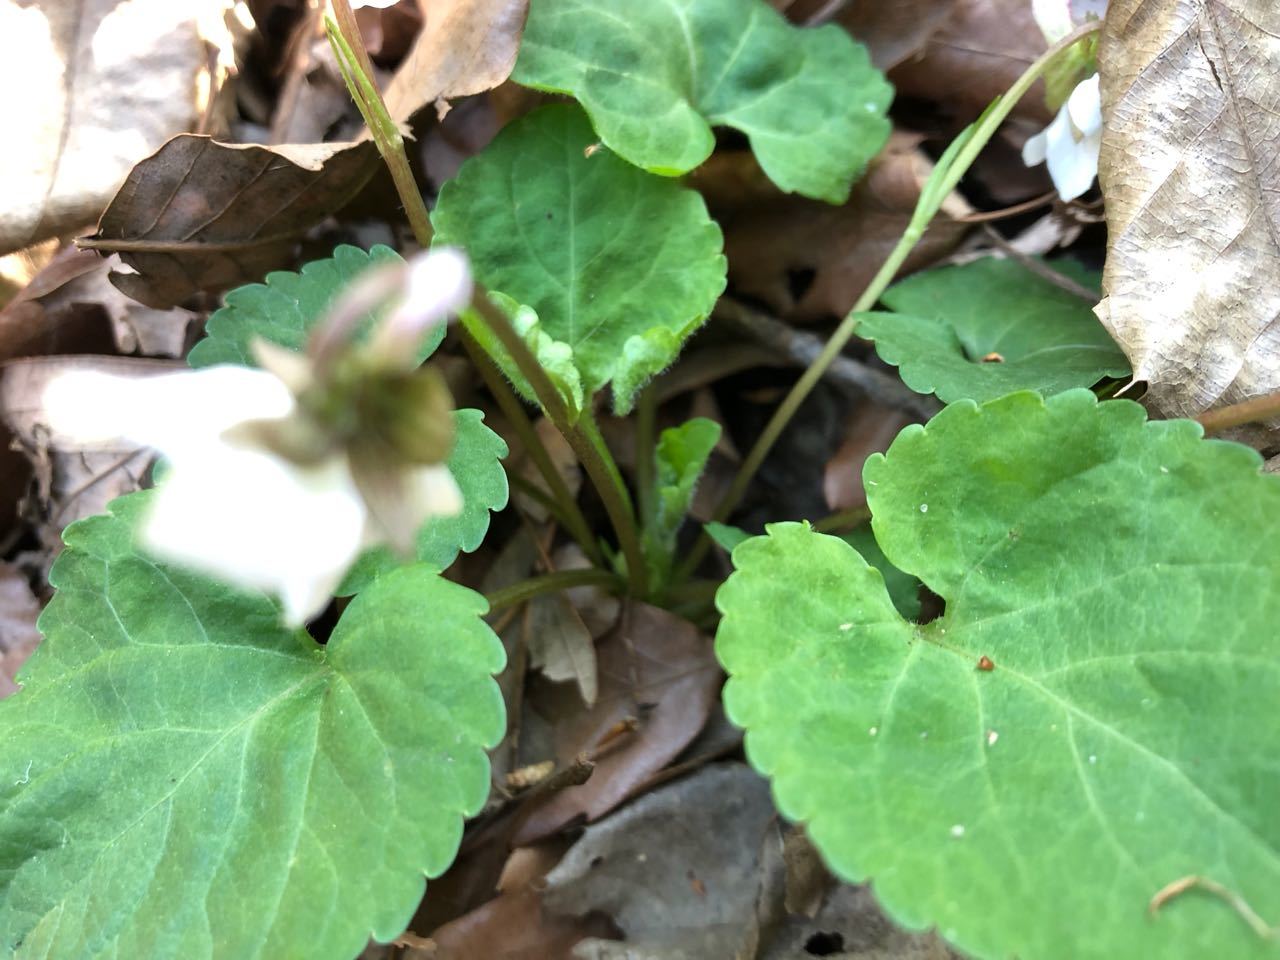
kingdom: Plantae
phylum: Tracheophyta
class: Magnoliopsida
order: Malpighiales
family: Violaceae
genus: Viola
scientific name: Viola keiskei
